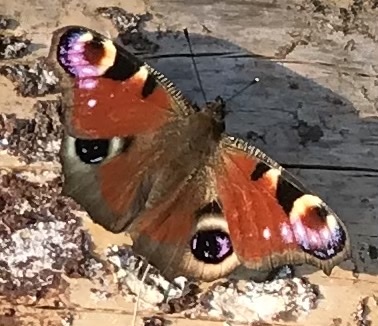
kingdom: Animalia
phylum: Arthropoda
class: Insecta
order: Lepidoptera
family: Nymphalidae
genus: Aglais
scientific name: Aglais io
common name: Peacock
